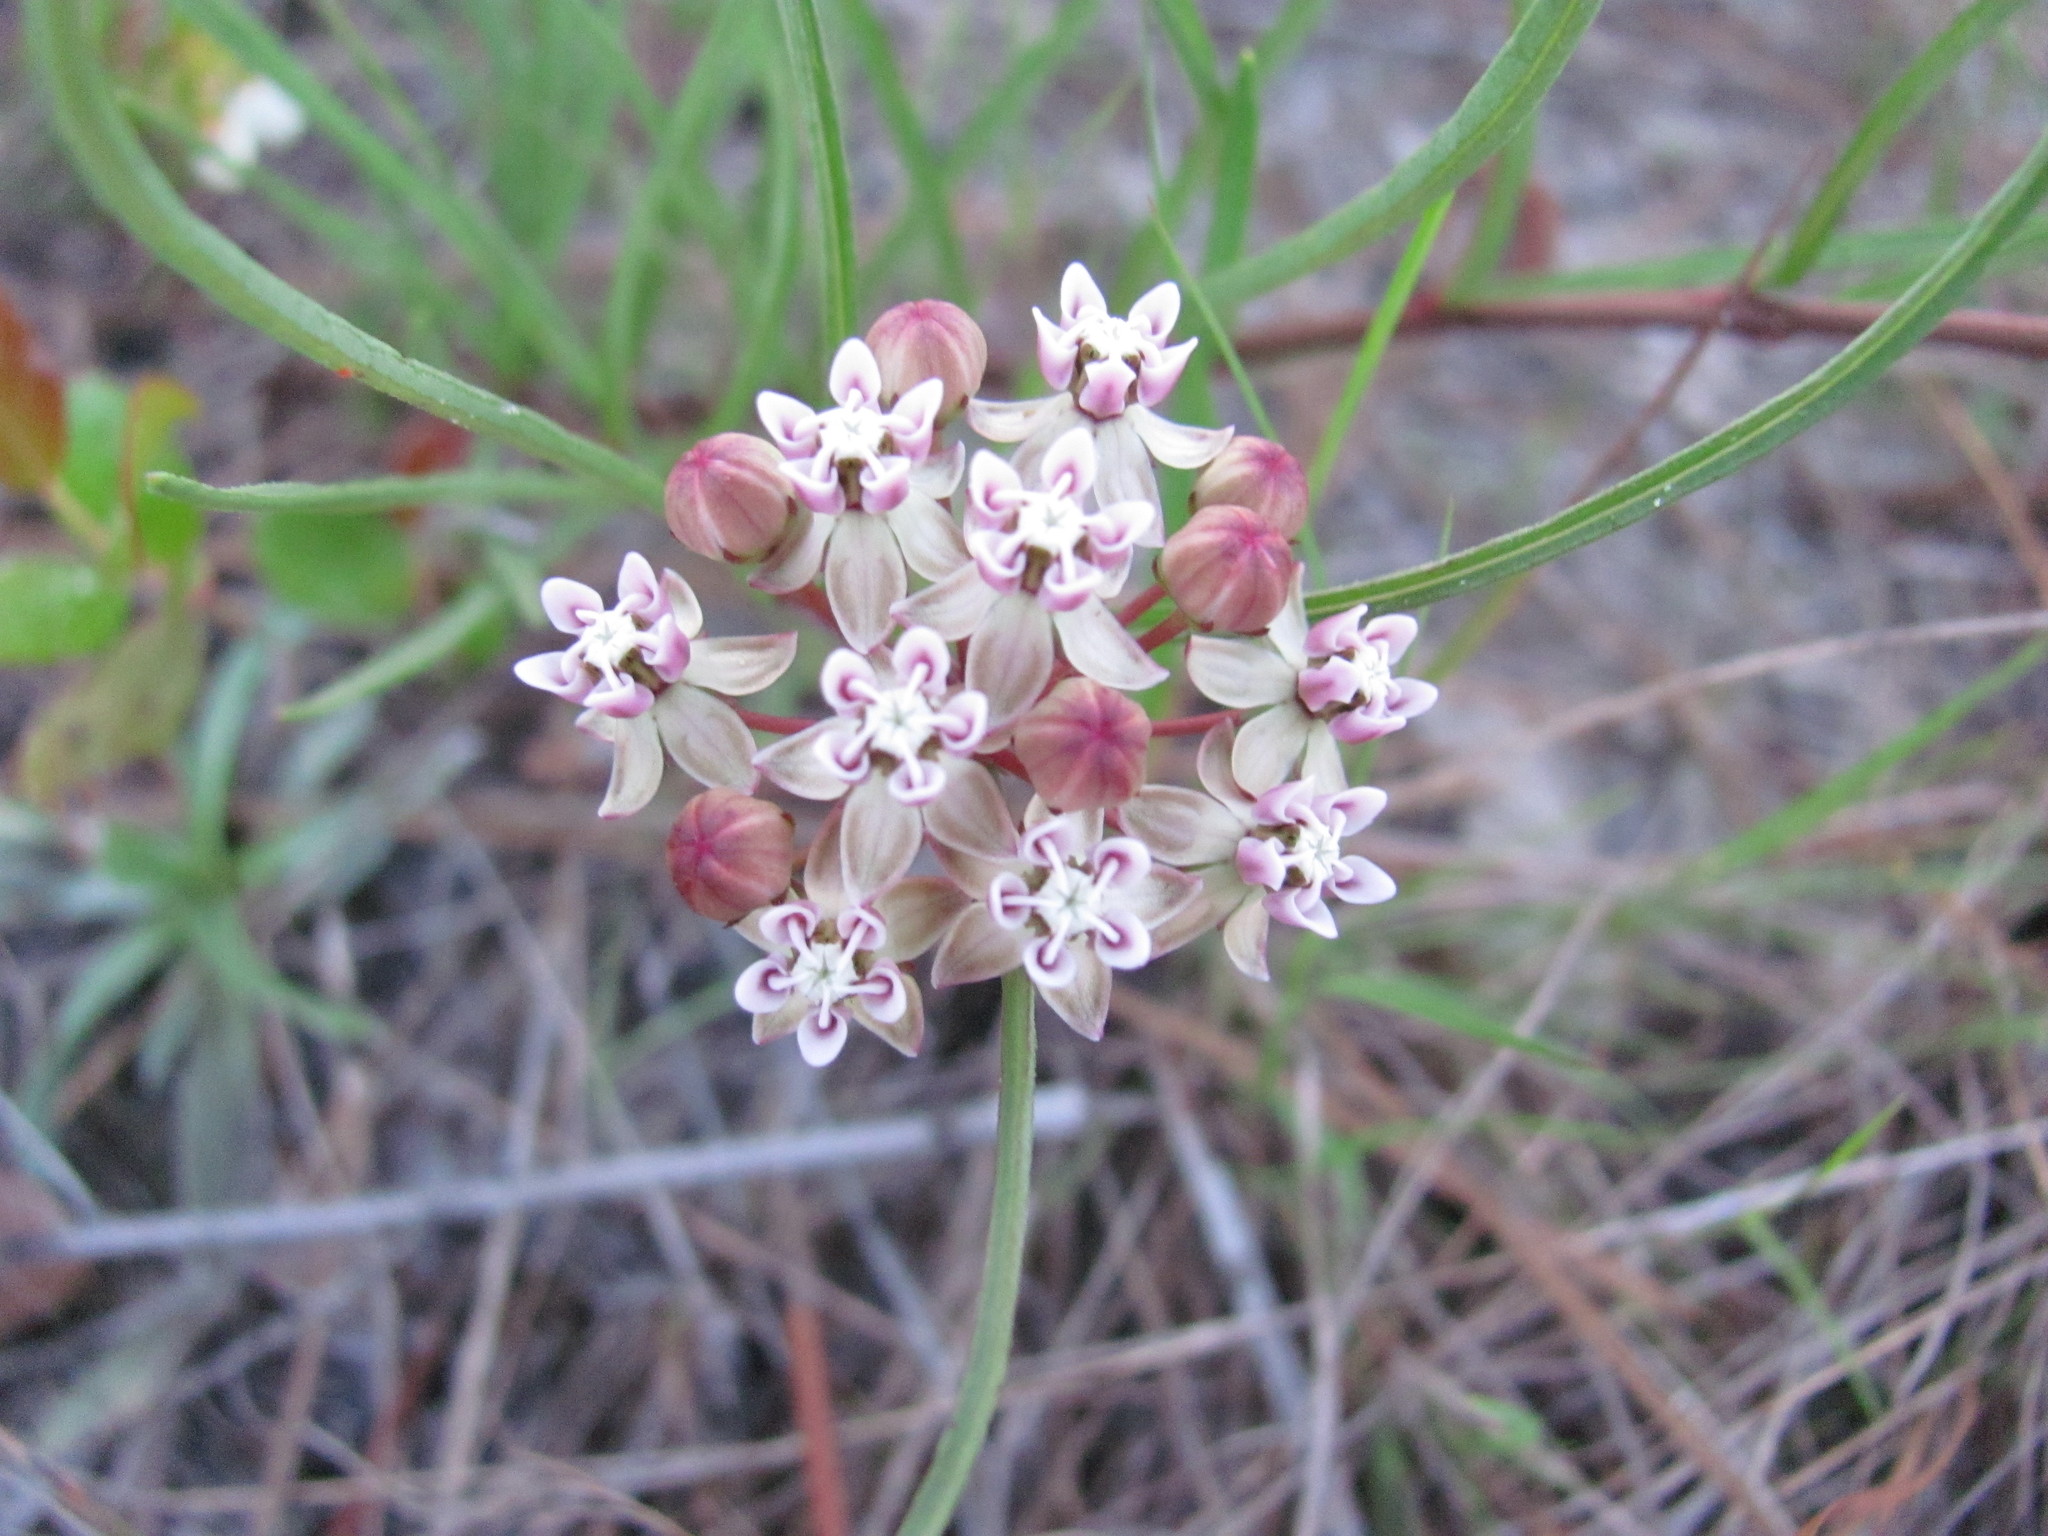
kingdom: Plantae
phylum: Tracheophyta
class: Magnoliopsida
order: Gentianales
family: Apocynaceae
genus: Asclepias
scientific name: Asclepias michauxii
